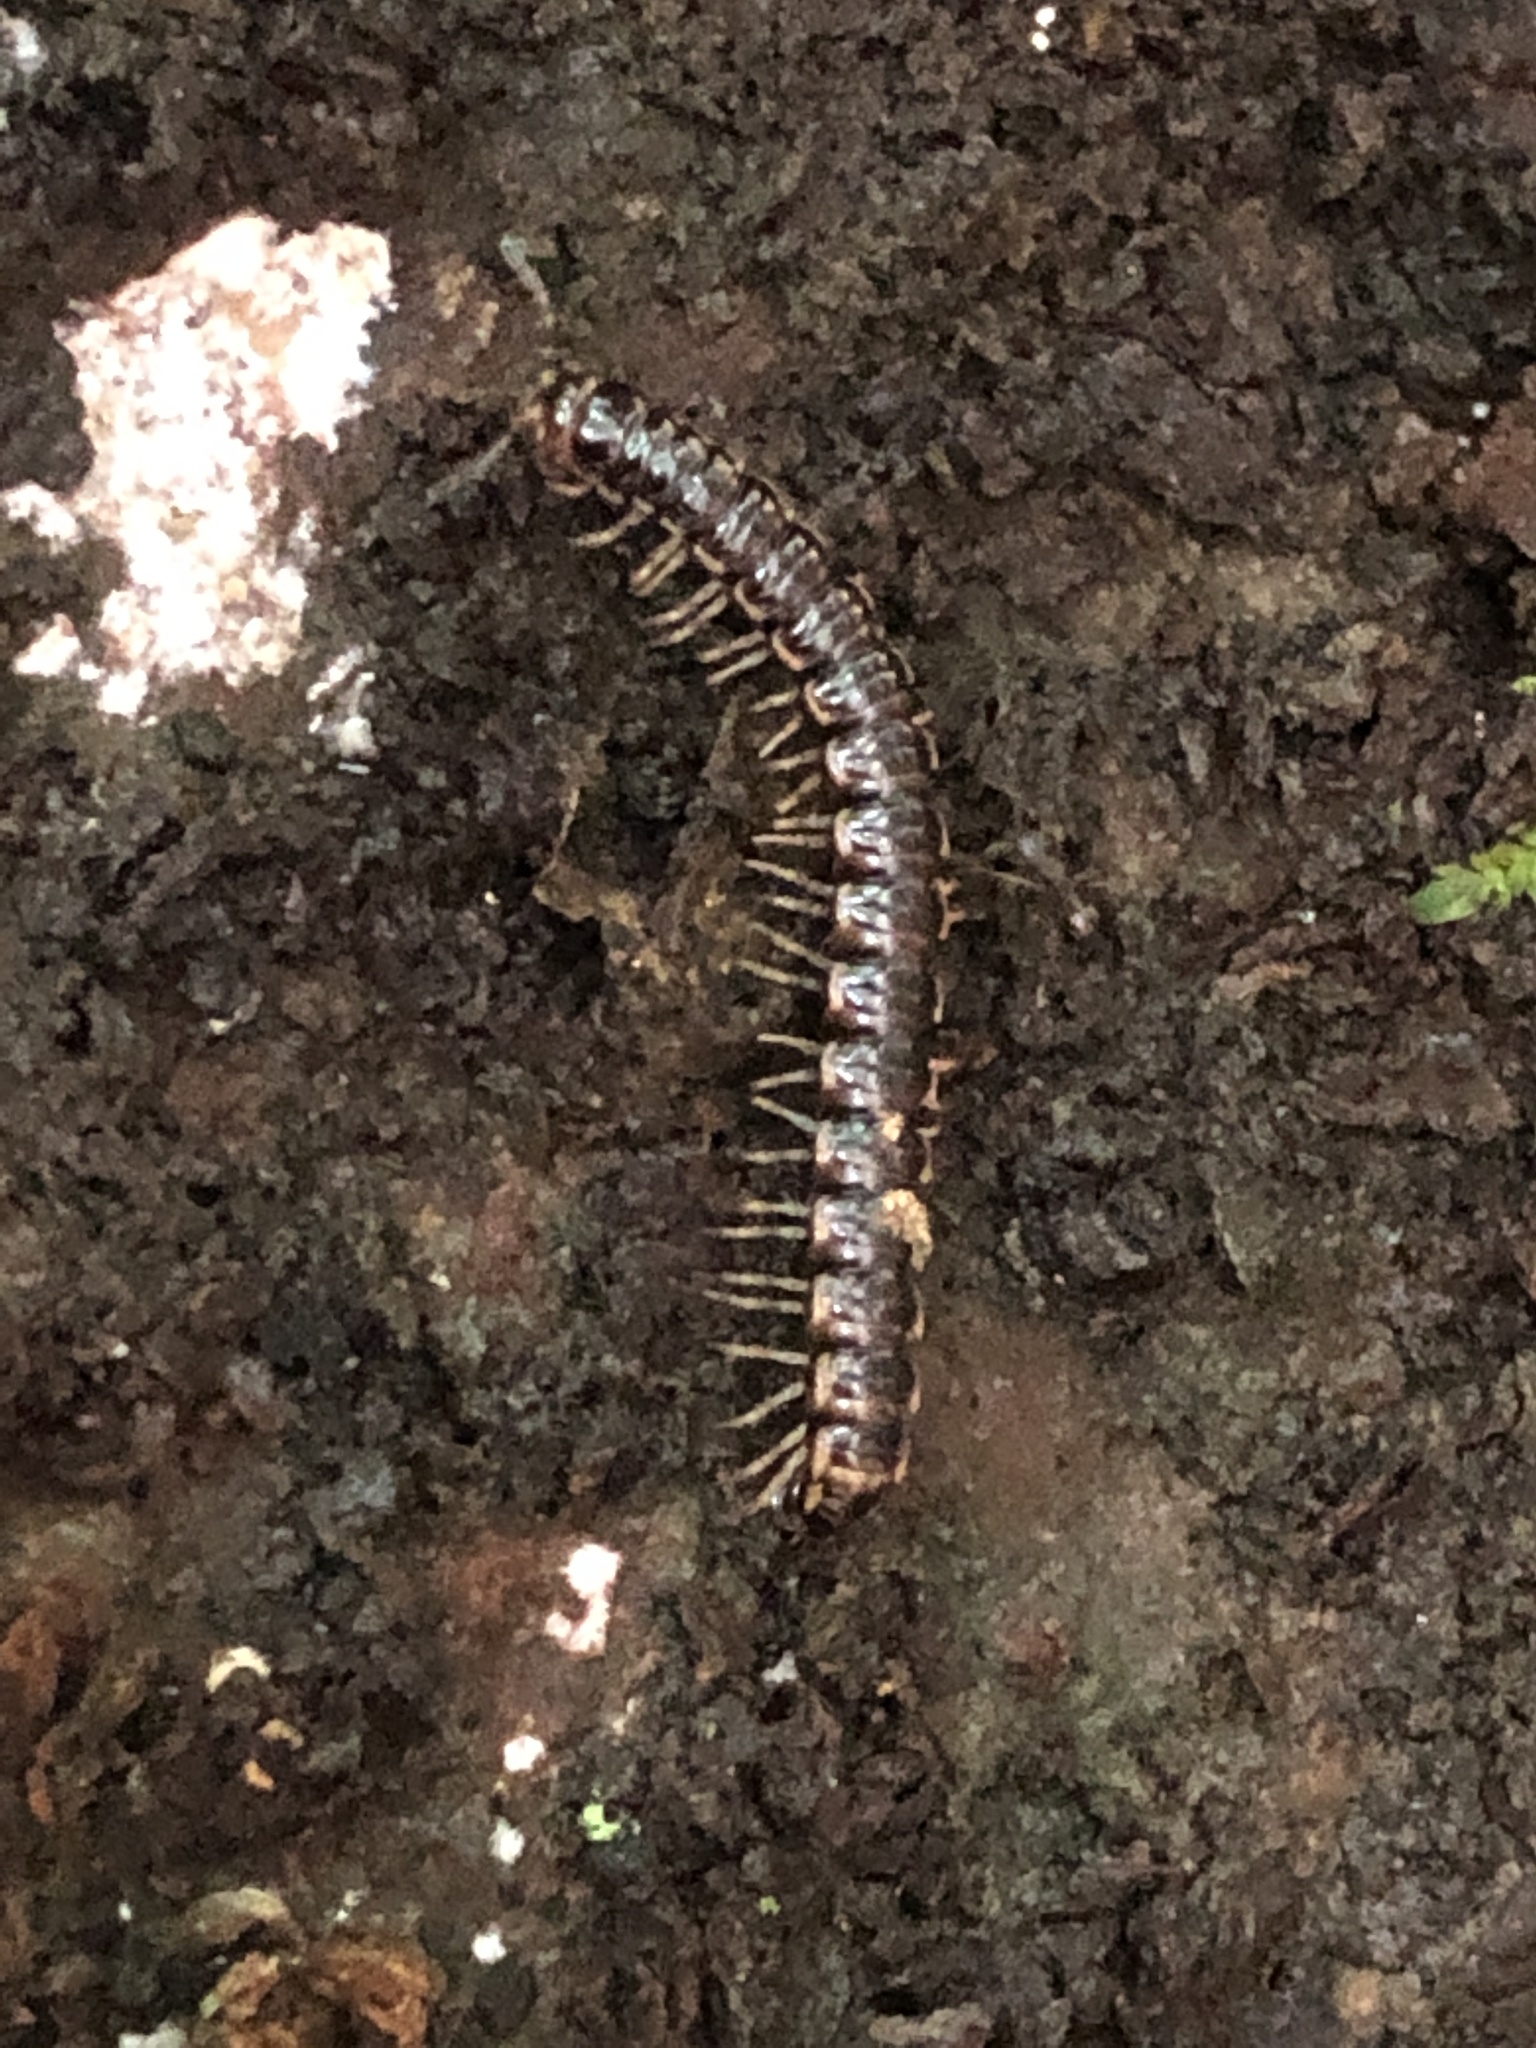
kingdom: Animalia
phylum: Arthropoda
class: Diplopoda
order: Polydesmida
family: Paradoxosomatidae
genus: Oxidus
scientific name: Oxidus gracilis
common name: Greenhouse millipede
